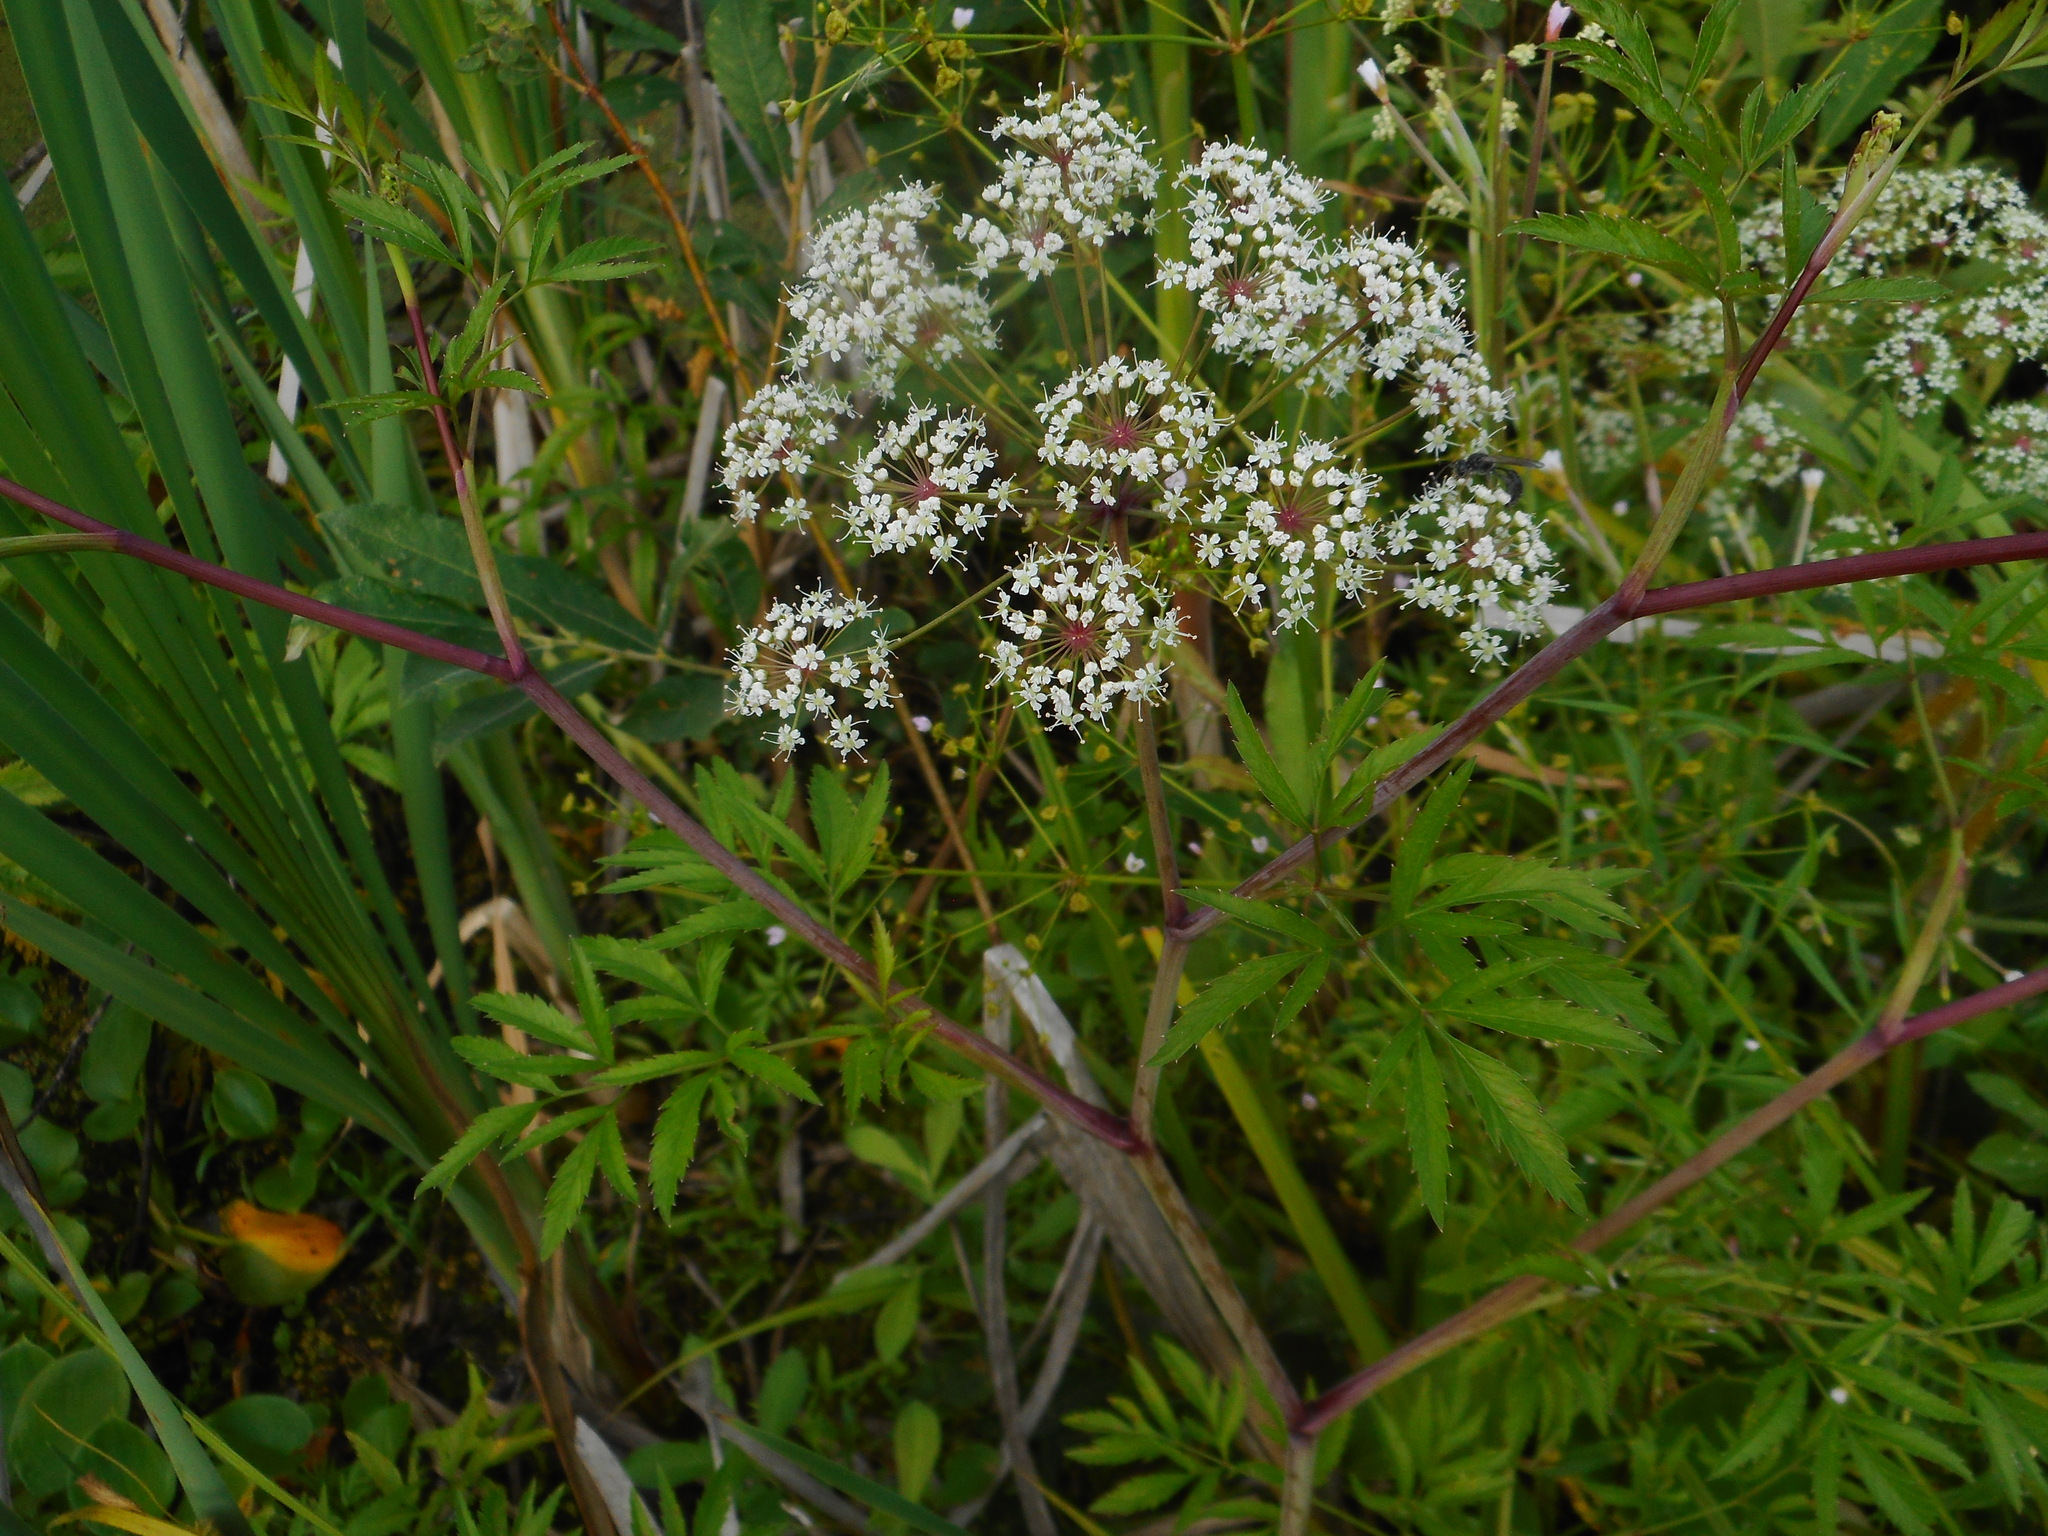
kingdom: Plantae
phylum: Tracheophyta
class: Magnoliopsida
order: Apiales
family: Apiaceae
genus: Cicuta
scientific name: Cicuta virosa
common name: Cowbane
